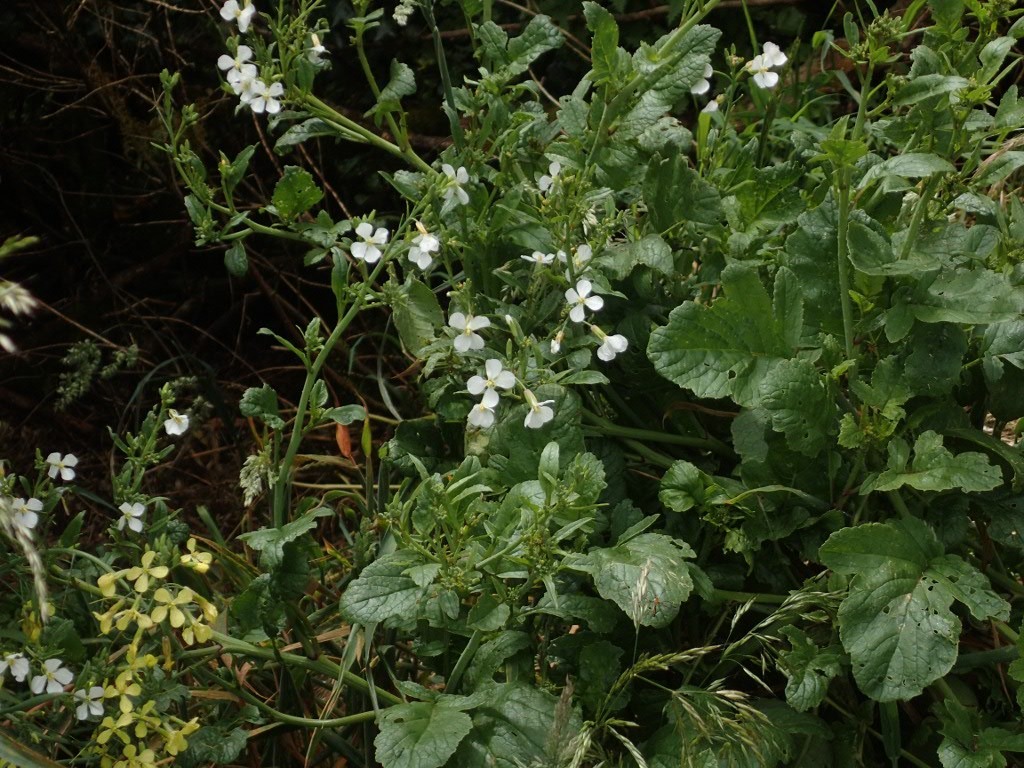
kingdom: Plantae
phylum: Tracheophyta
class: Magnoliopsida
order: Brassicales
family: Brassicaceae
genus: Raphanus
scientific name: Raphanus raphanistrum
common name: Wild radish
